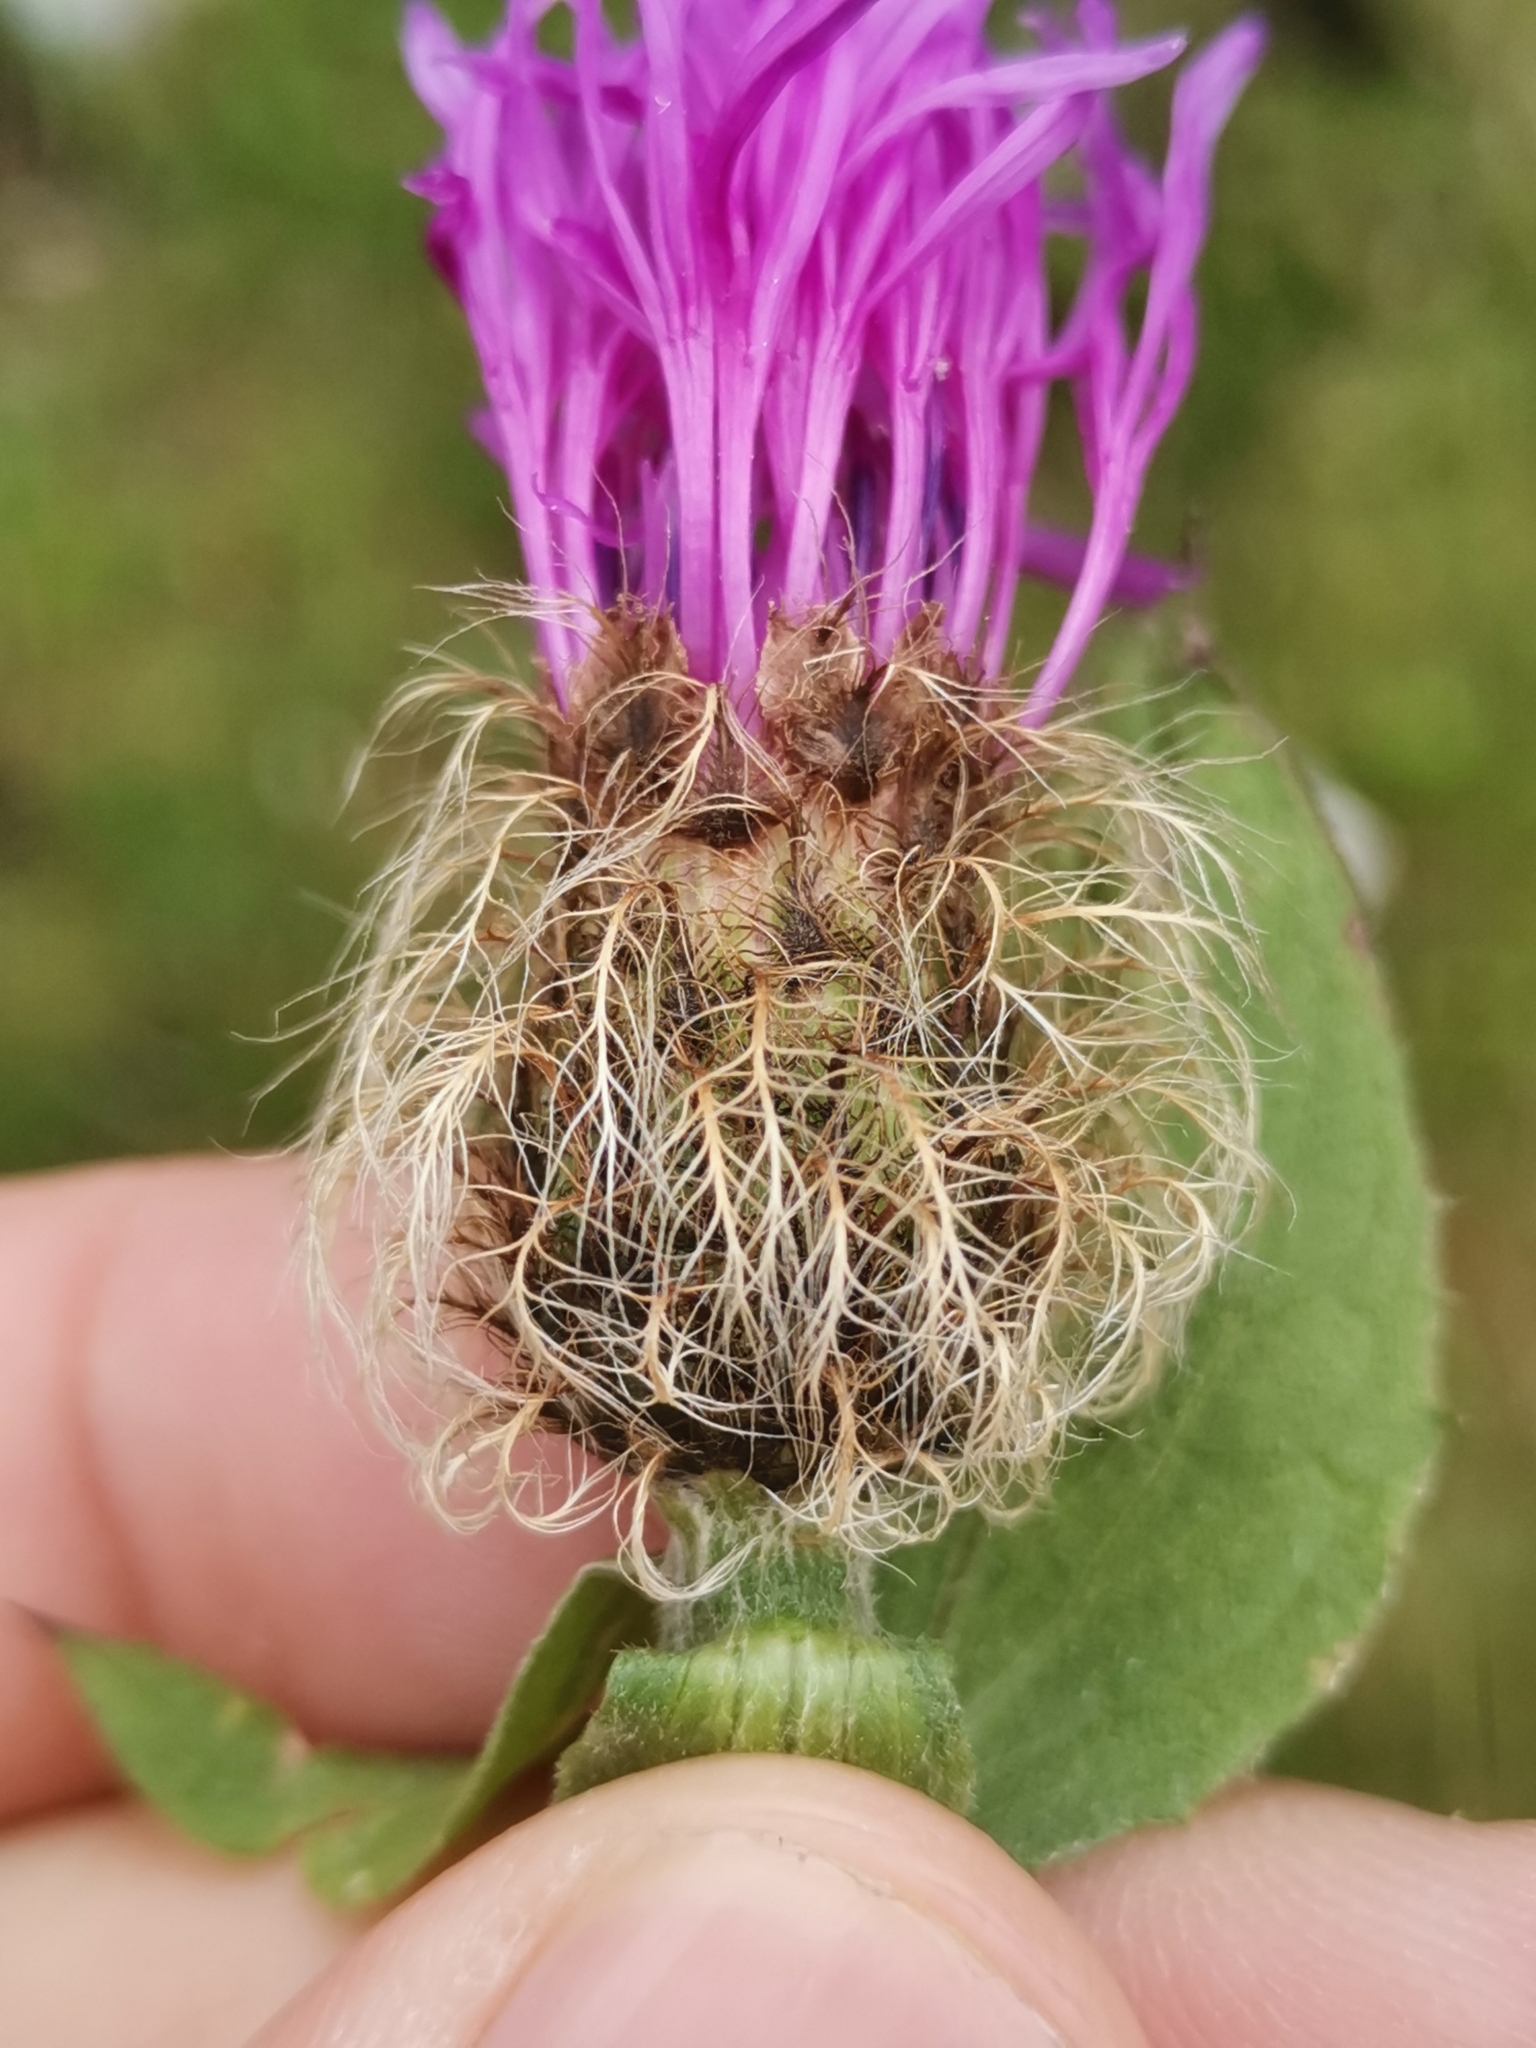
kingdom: Plantae
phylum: Tracheophyta
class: Magnoliopsida
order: Asterales
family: Asteraceae
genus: Centaurea
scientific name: Centaurea nervosa
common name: Singleflower knapweed
